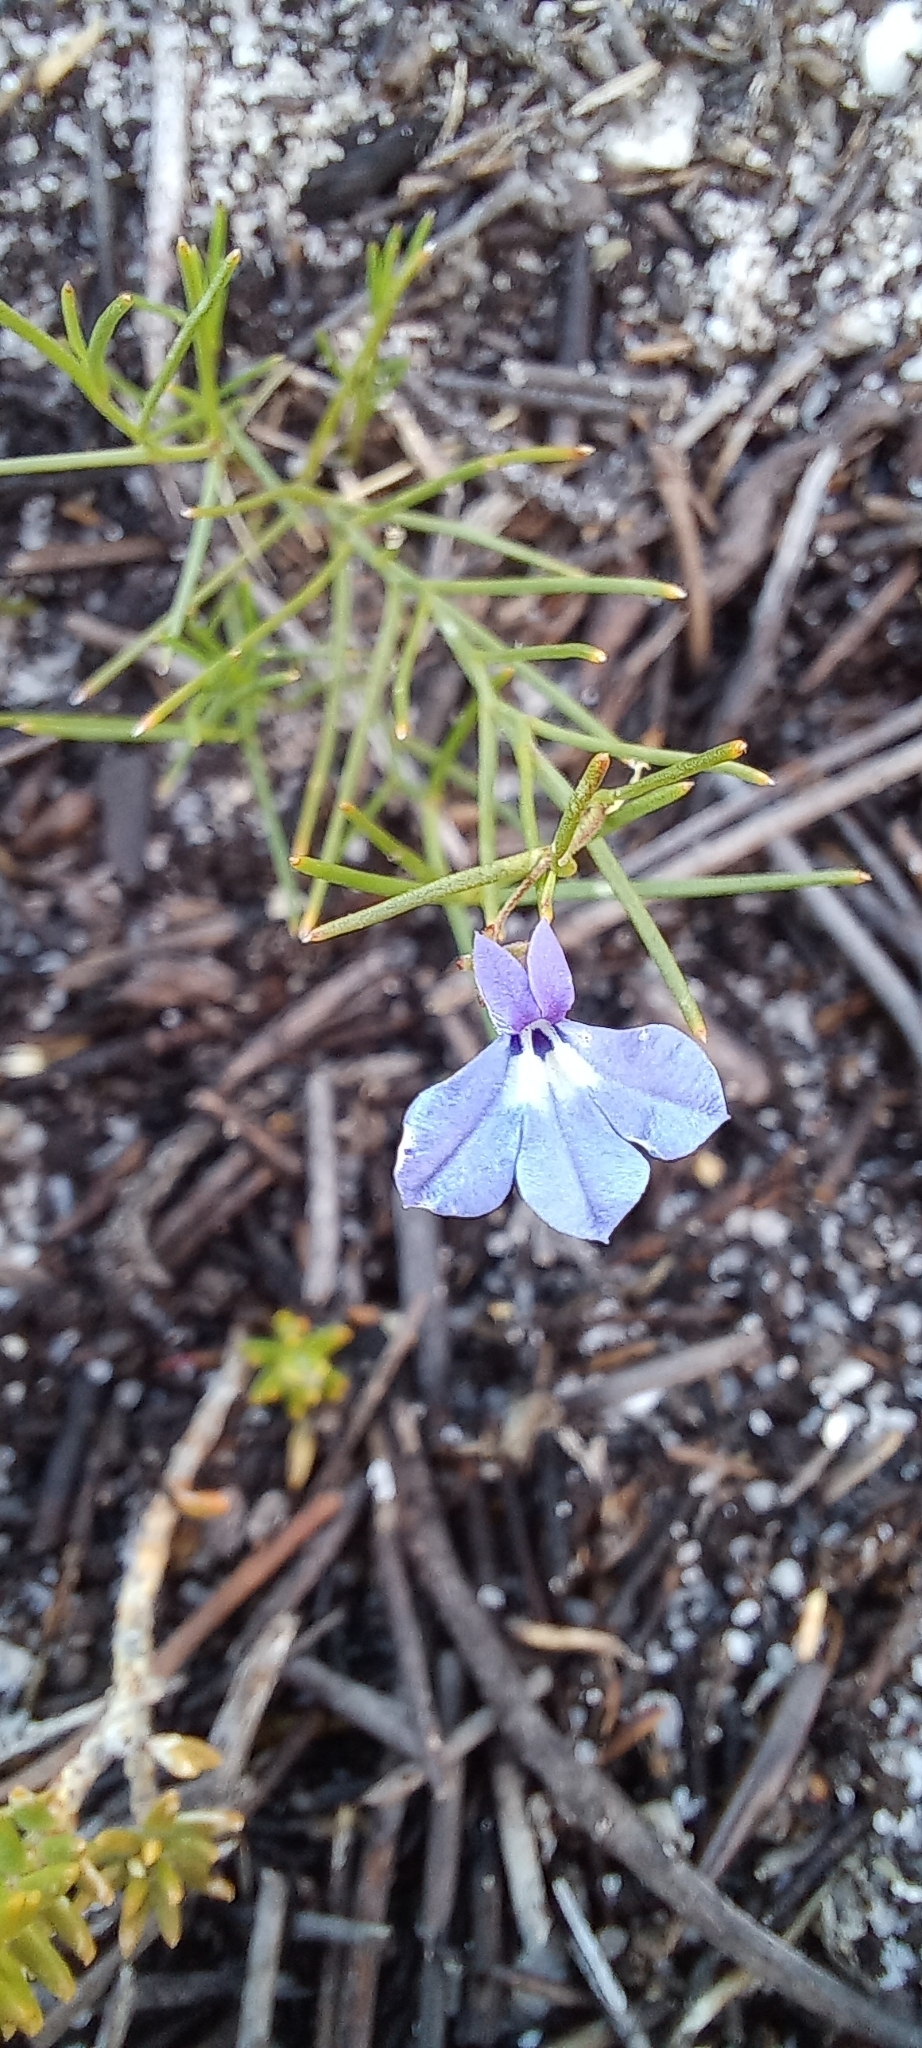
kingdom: Plantae
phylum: Tracheophyta
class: Magnoliopsida
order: Asterales
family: Campanulaceae
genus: Lobelia
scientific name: Lobelia setacea
